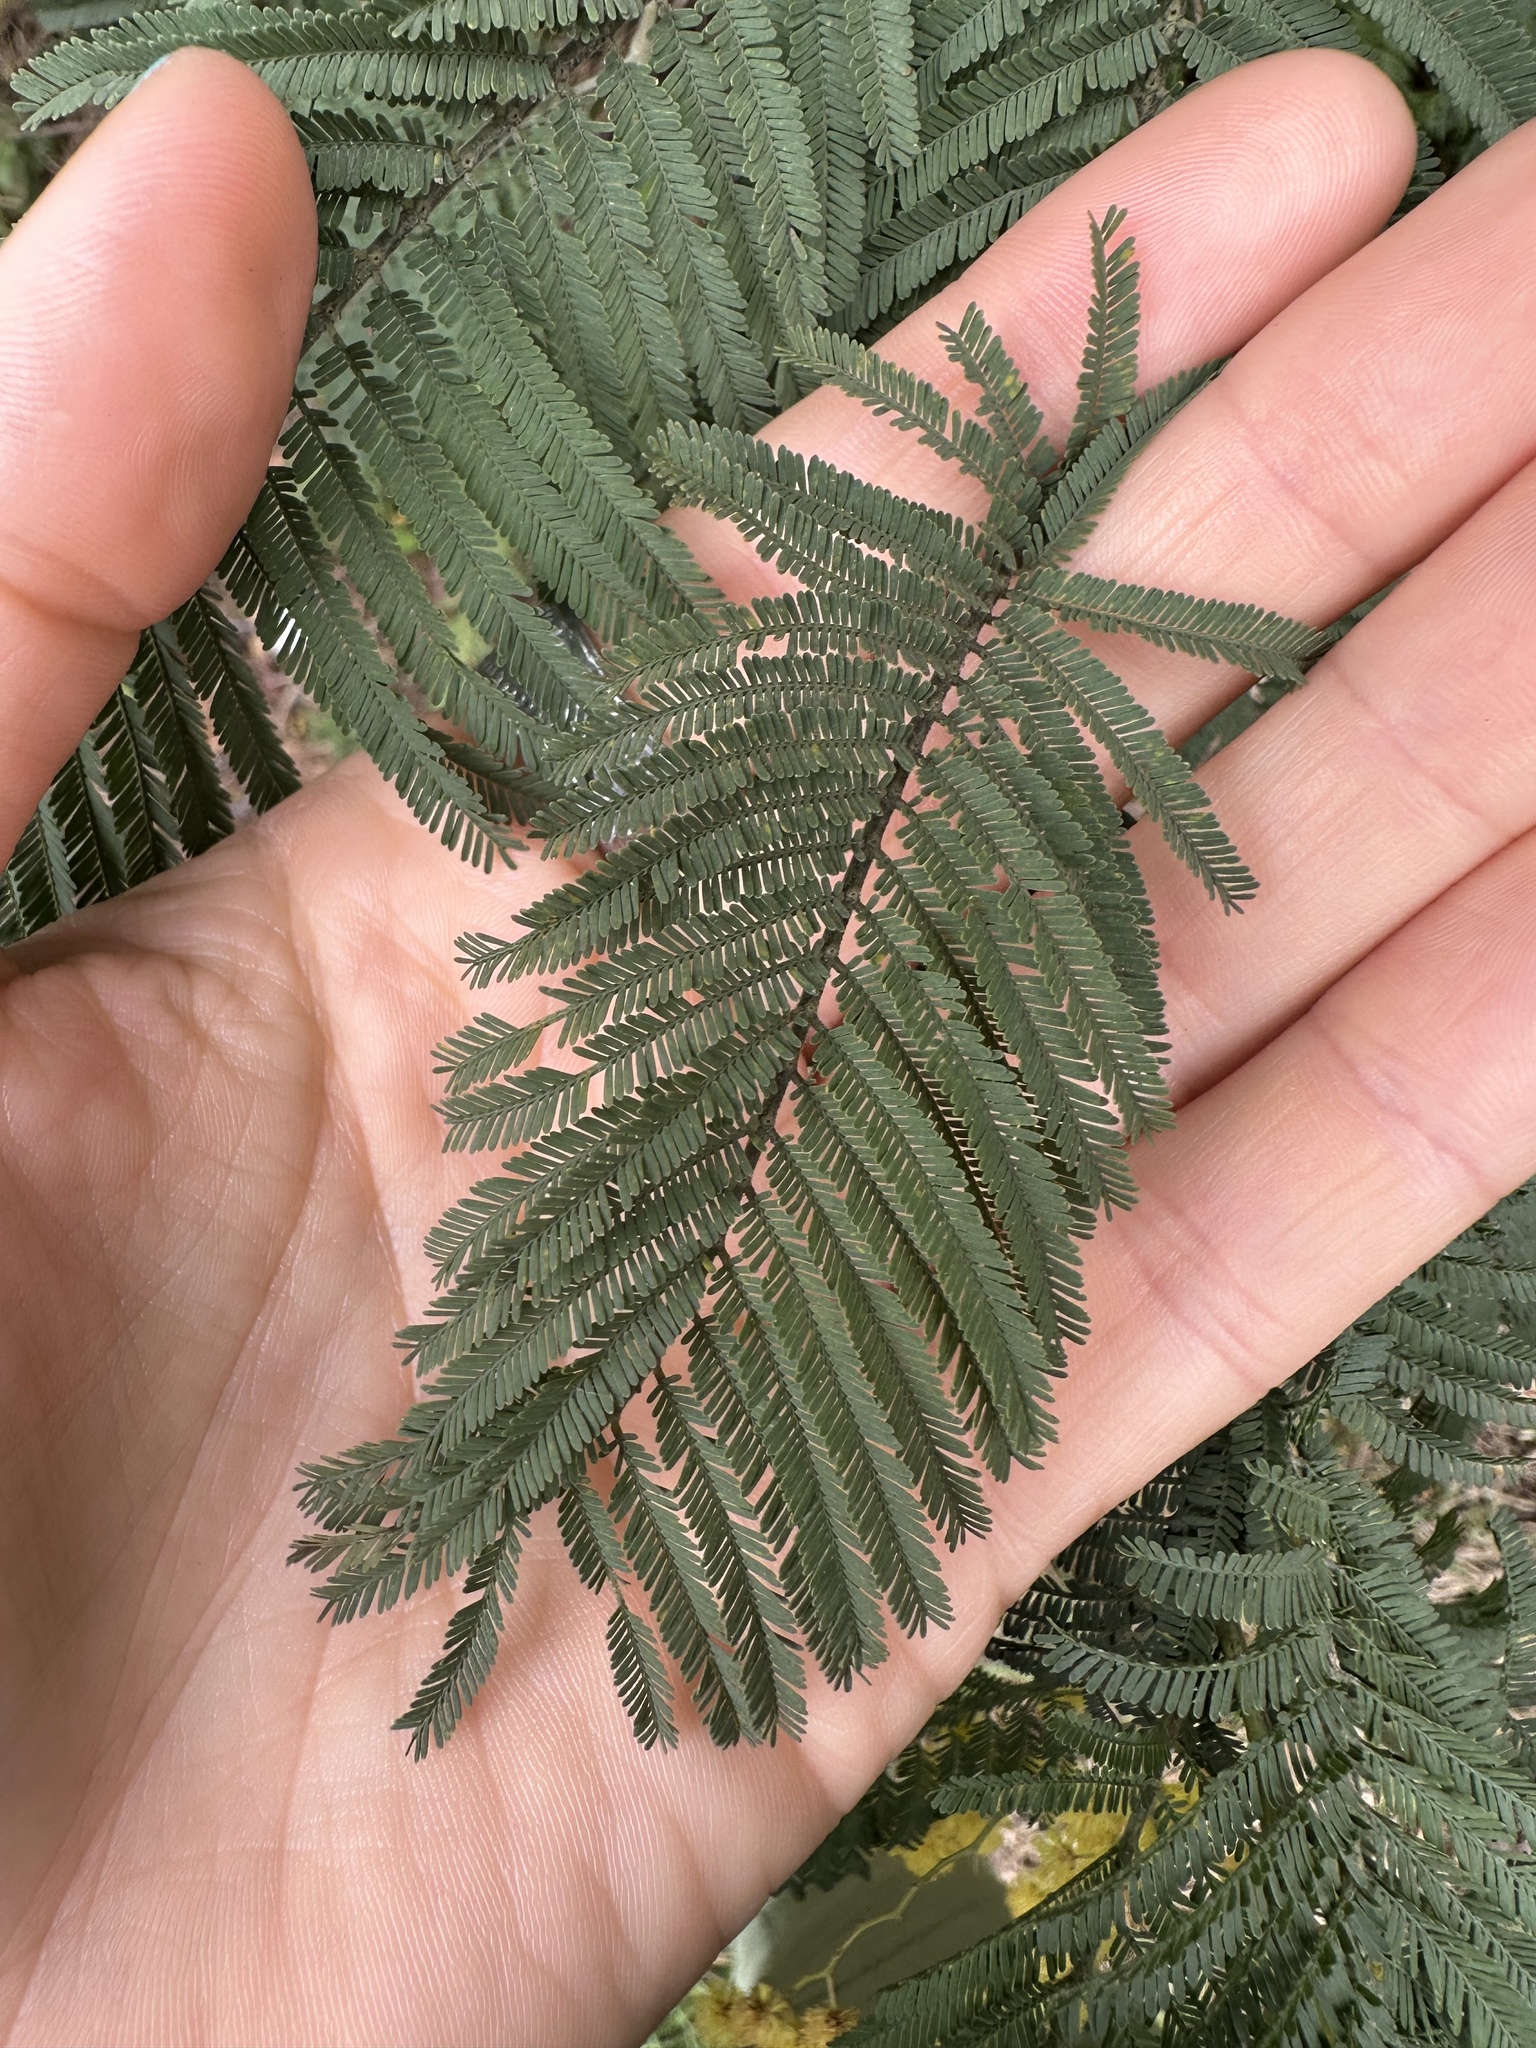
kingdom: Plantae
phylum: Tracheophyta
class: Magnoliopsida
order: Fabales
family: Fabaceae
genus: Acacia
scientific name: Acacia dealbata
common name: Silver wattle
